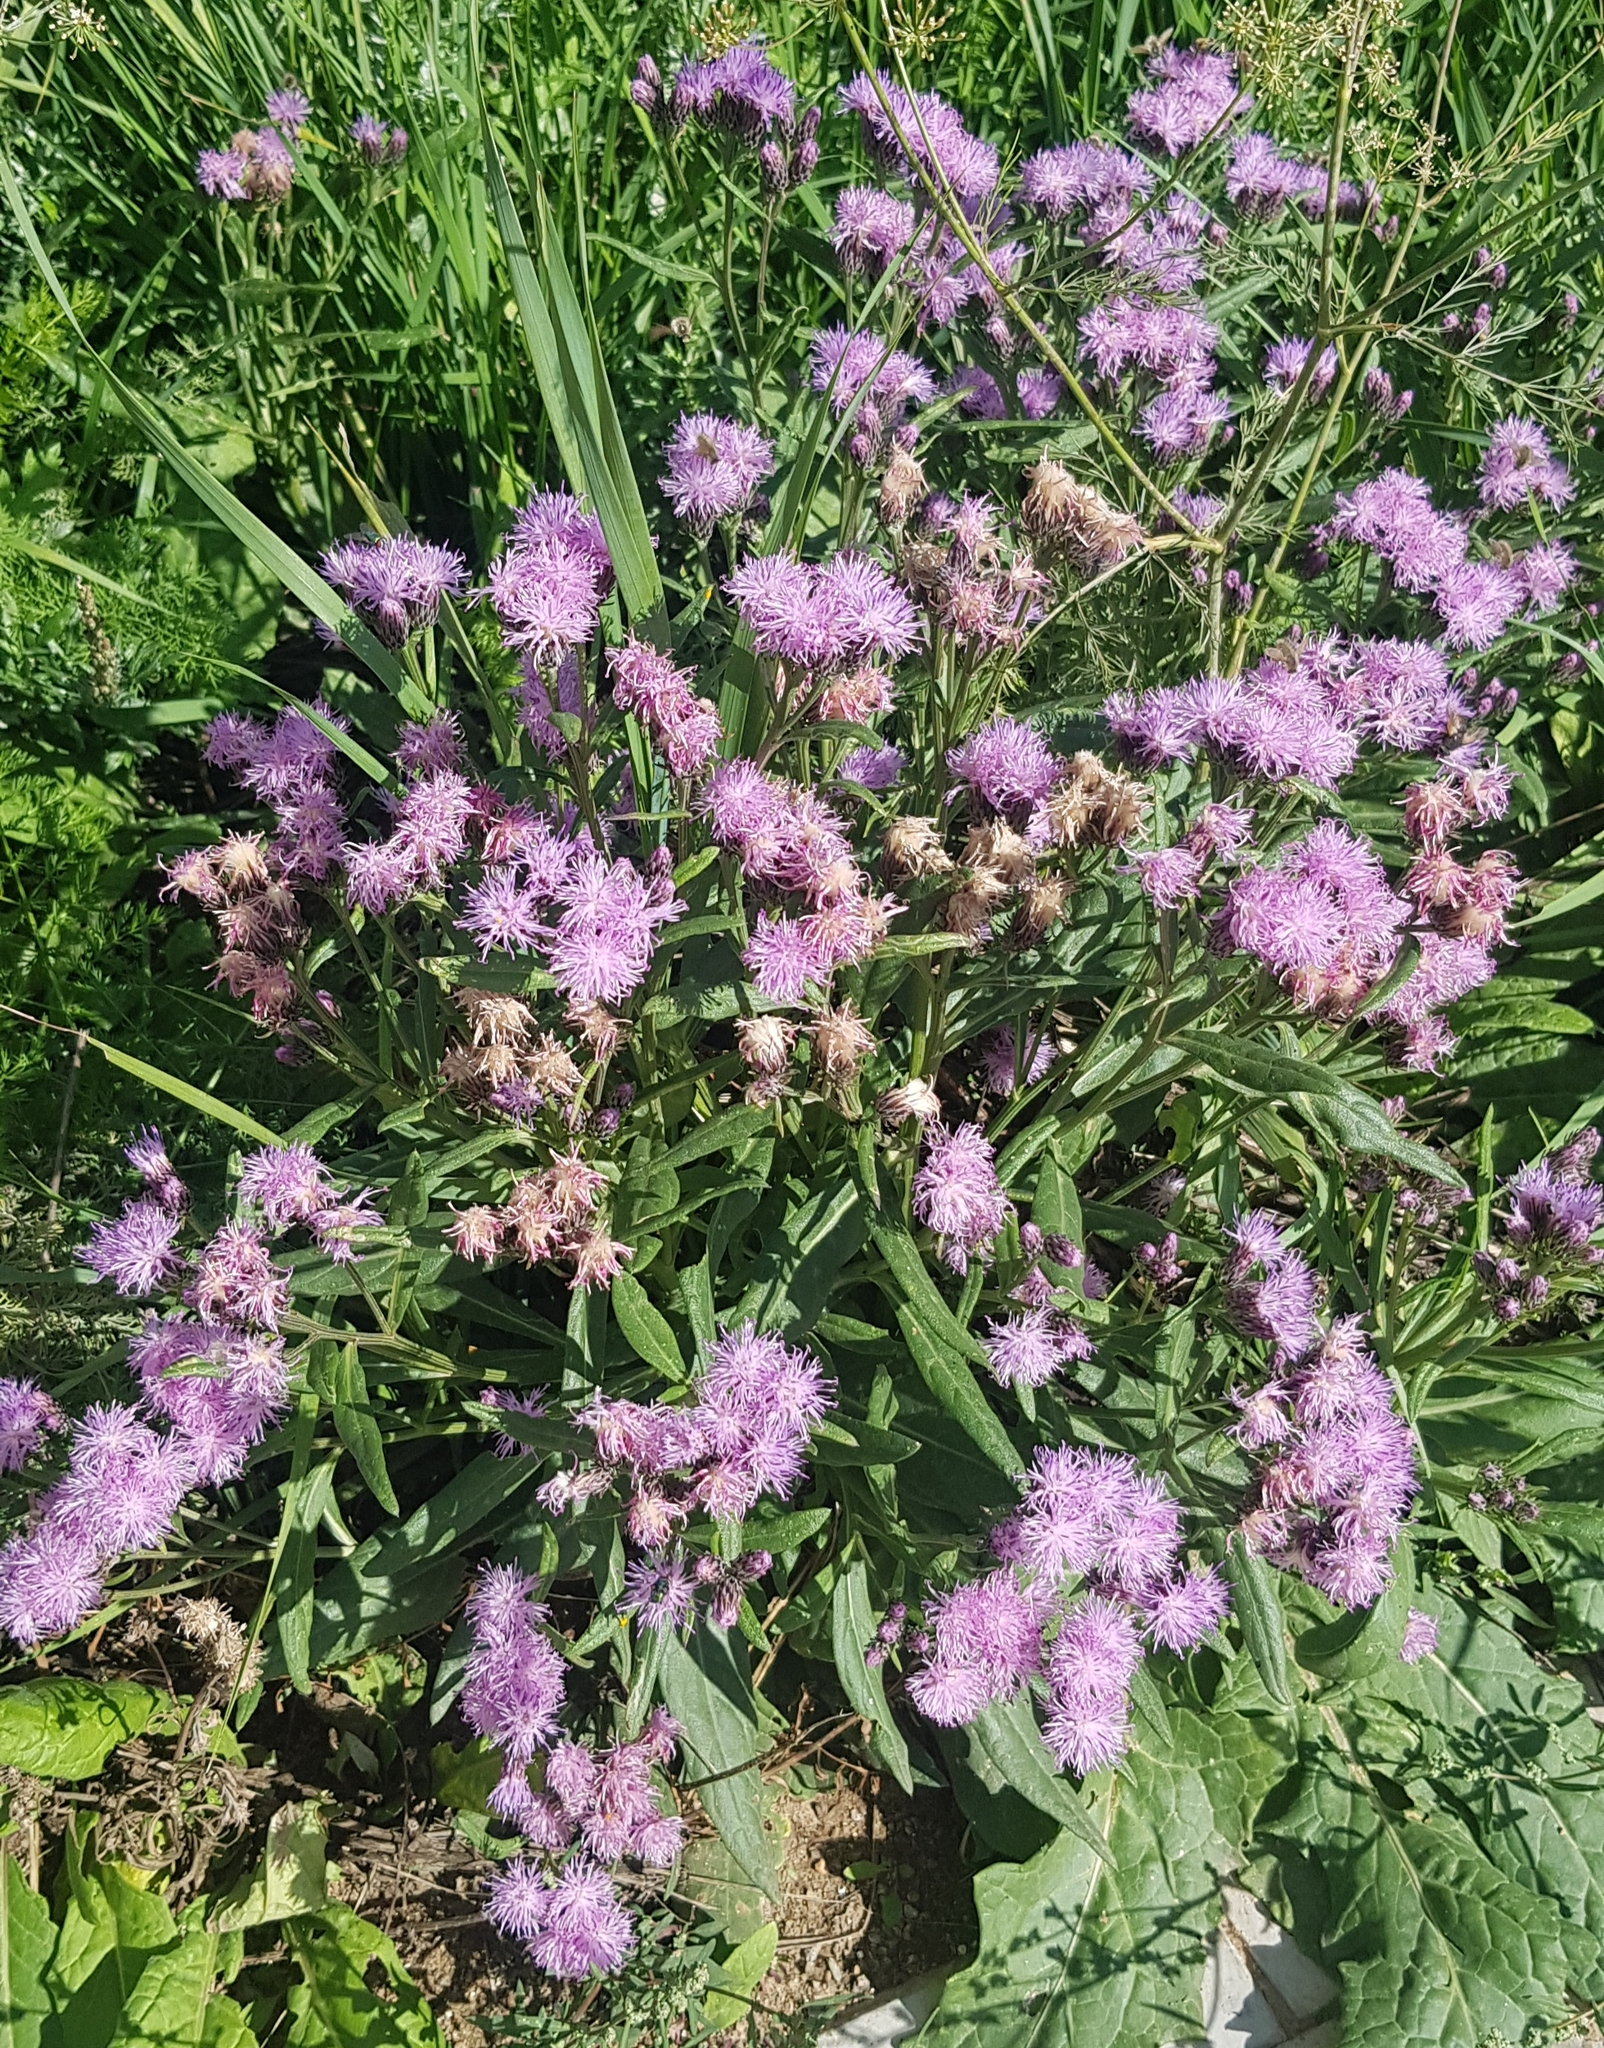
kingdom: Plantae
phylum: Tracheophyta
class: Magnoliopsida
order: Asterales
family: Asteraceae
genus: Saussurea
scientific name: Saussurea salicifolia
